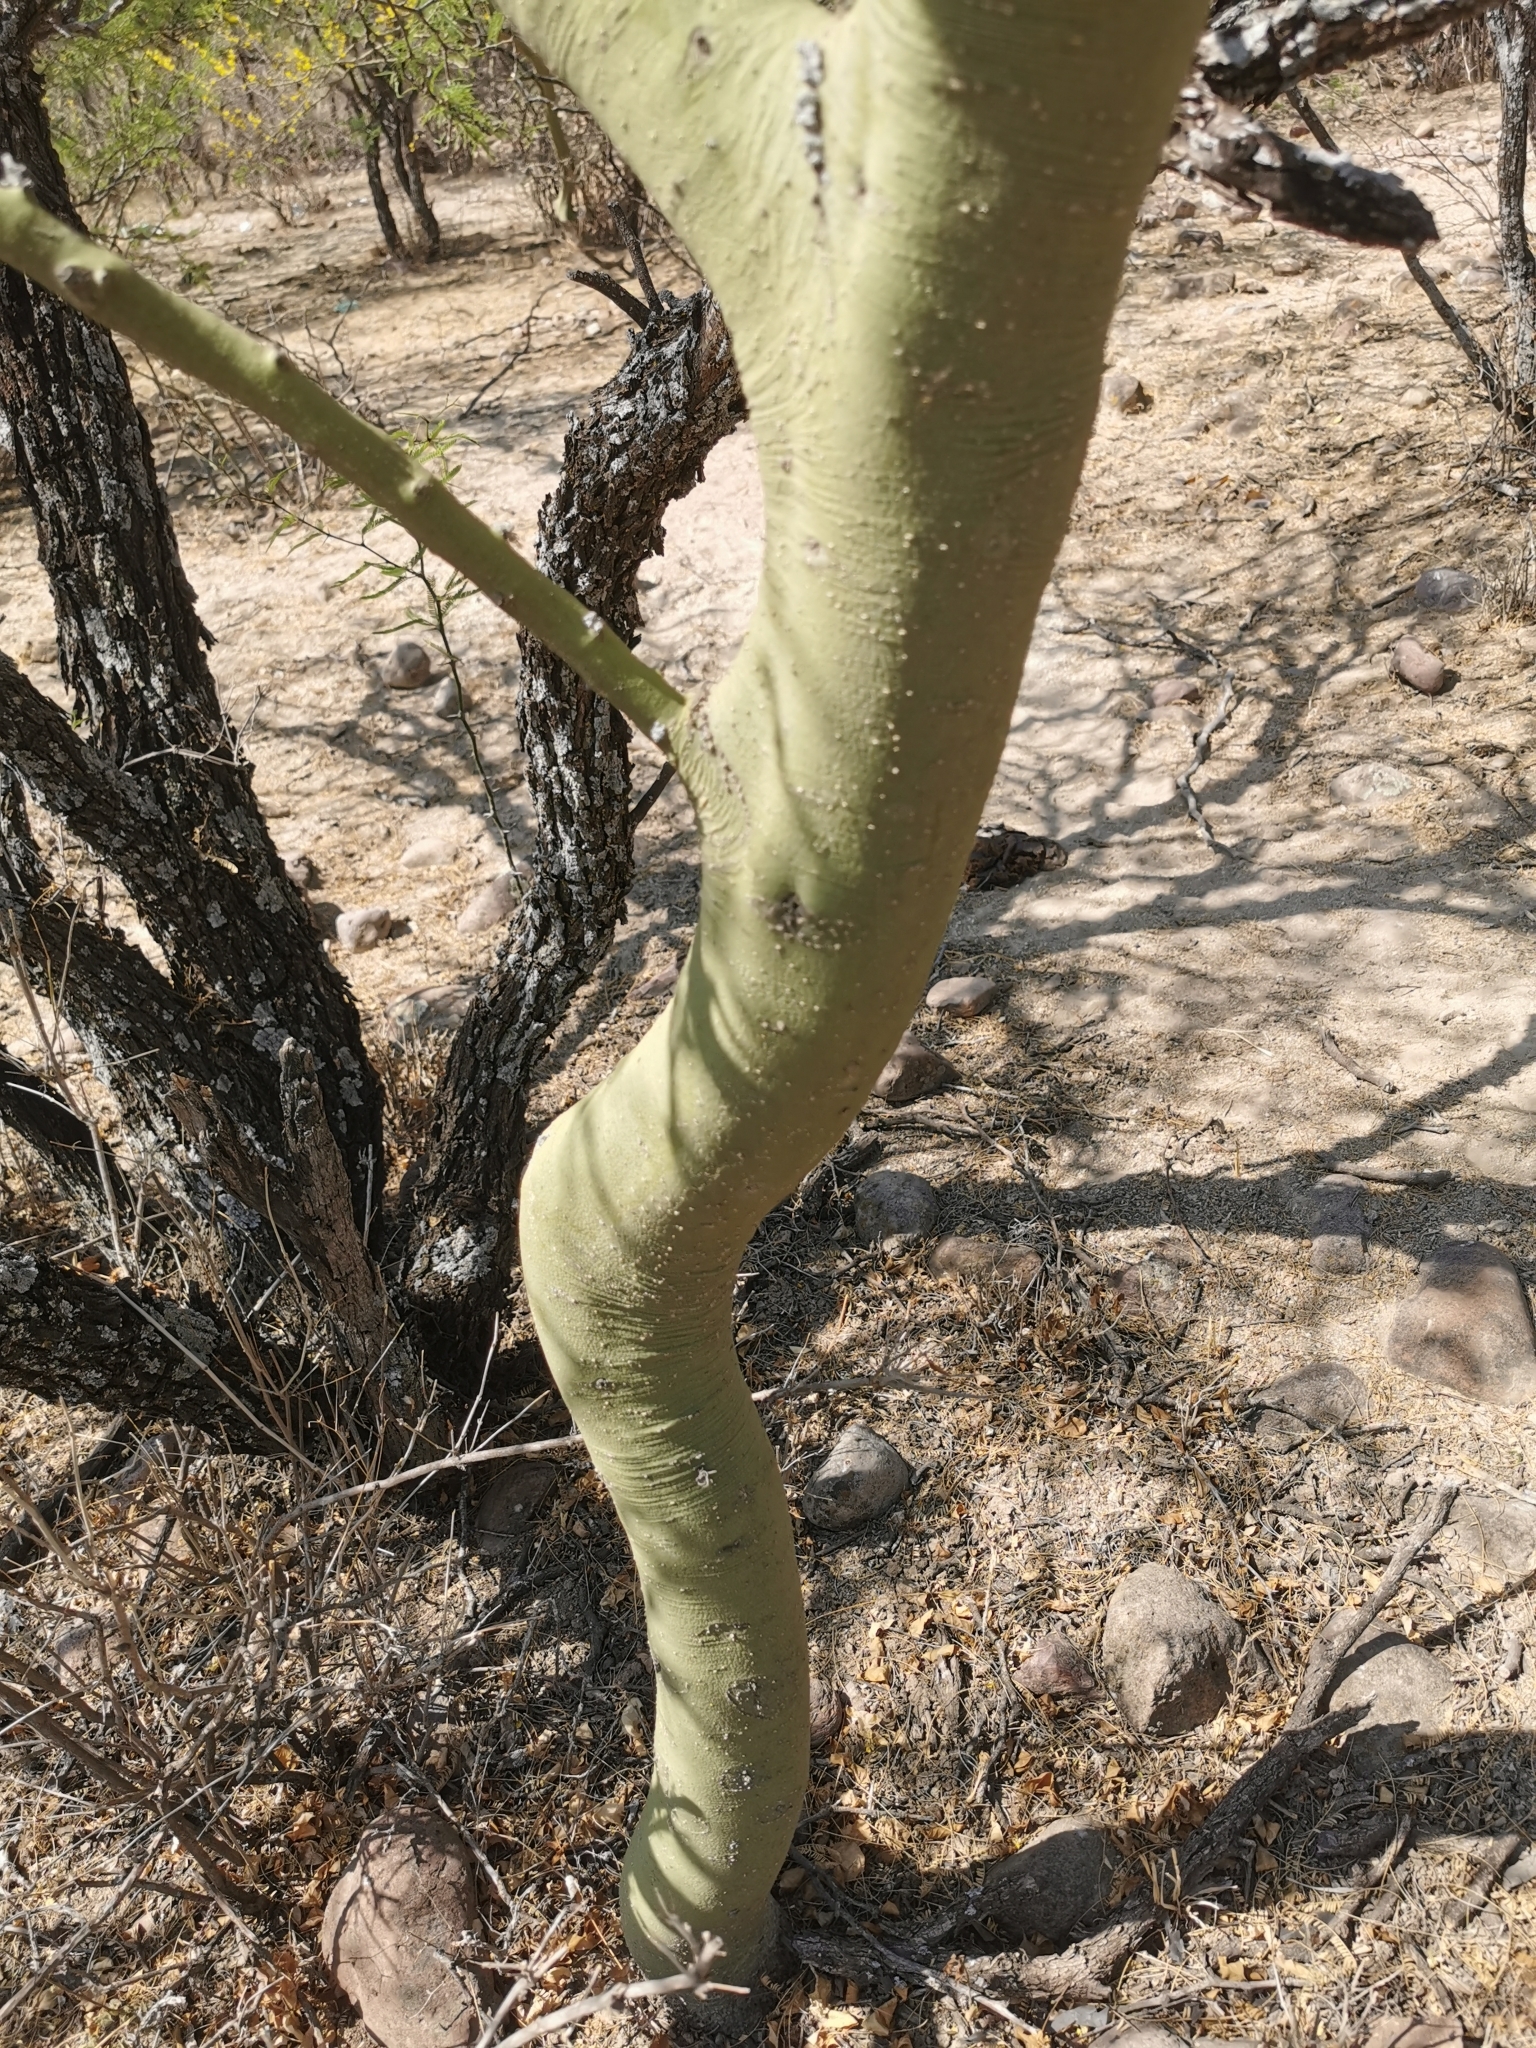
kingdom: Plantae
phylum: Tracheophyta
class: Magnoliopsida
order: Fabales
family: Fabaceae
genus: Parkinsonia
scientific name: Parkinsonia praecox
